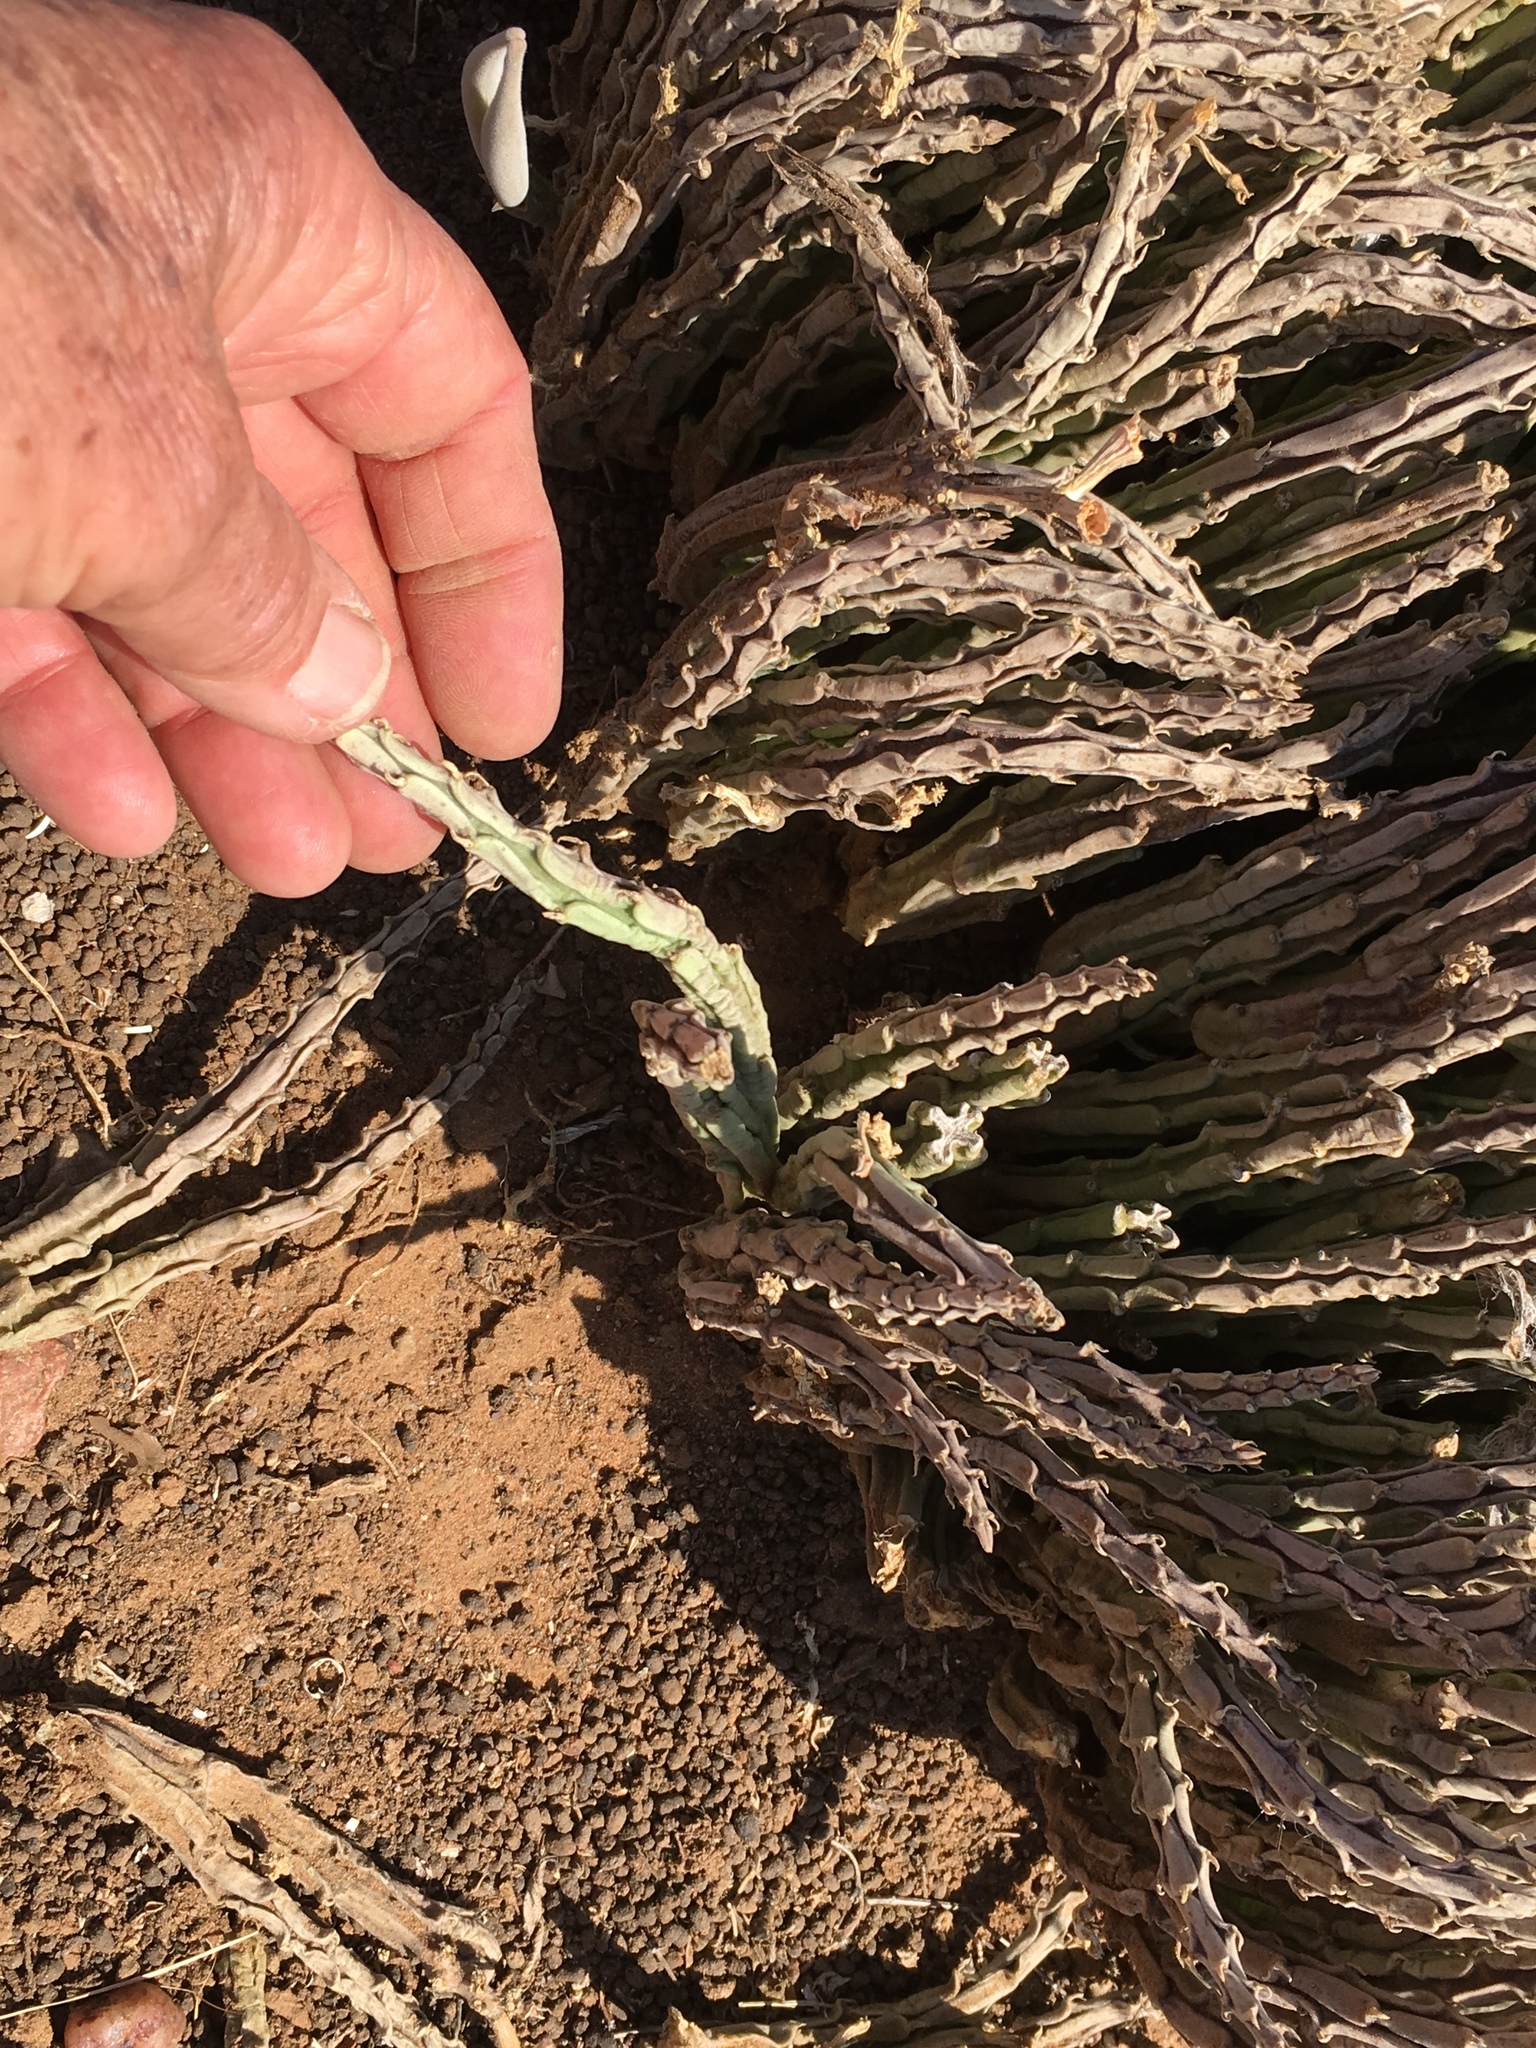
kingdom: Plantae
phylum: Tracheophyta
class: Magnoliopsida
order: Gentianales
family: Apocynaceae
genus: Ceropegia
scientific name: Ceropegia longipedicellata
